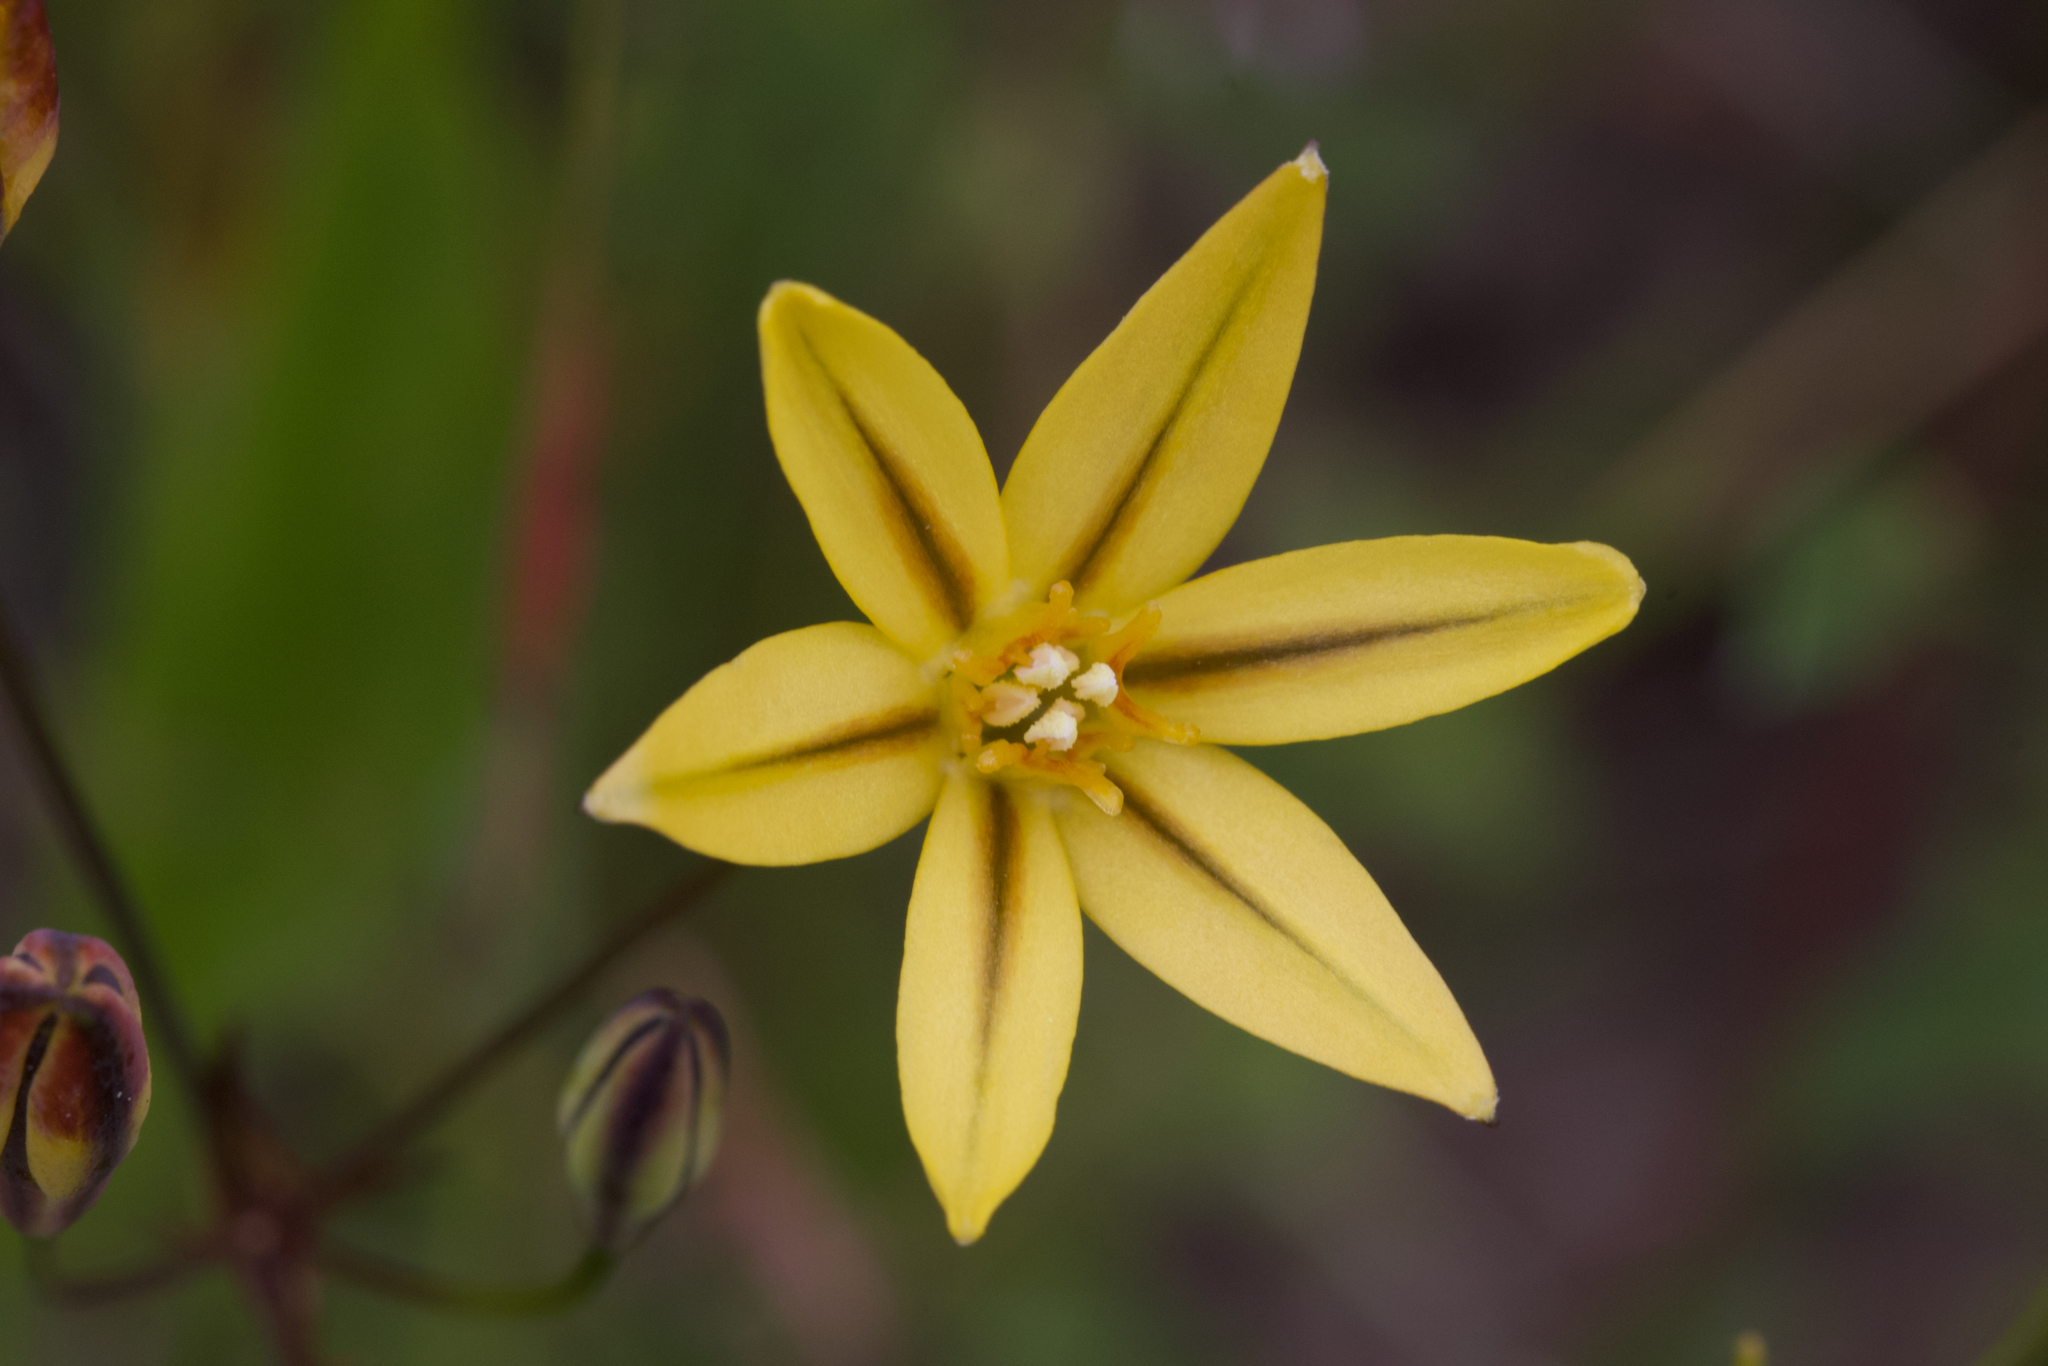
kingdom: Plantae
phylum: Tracheophyta
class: Liliopsida
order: Asparagales
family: Asparagaceae
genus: Triteleia
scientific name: Triteleia ixioides
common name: Yellow-brodiaea
